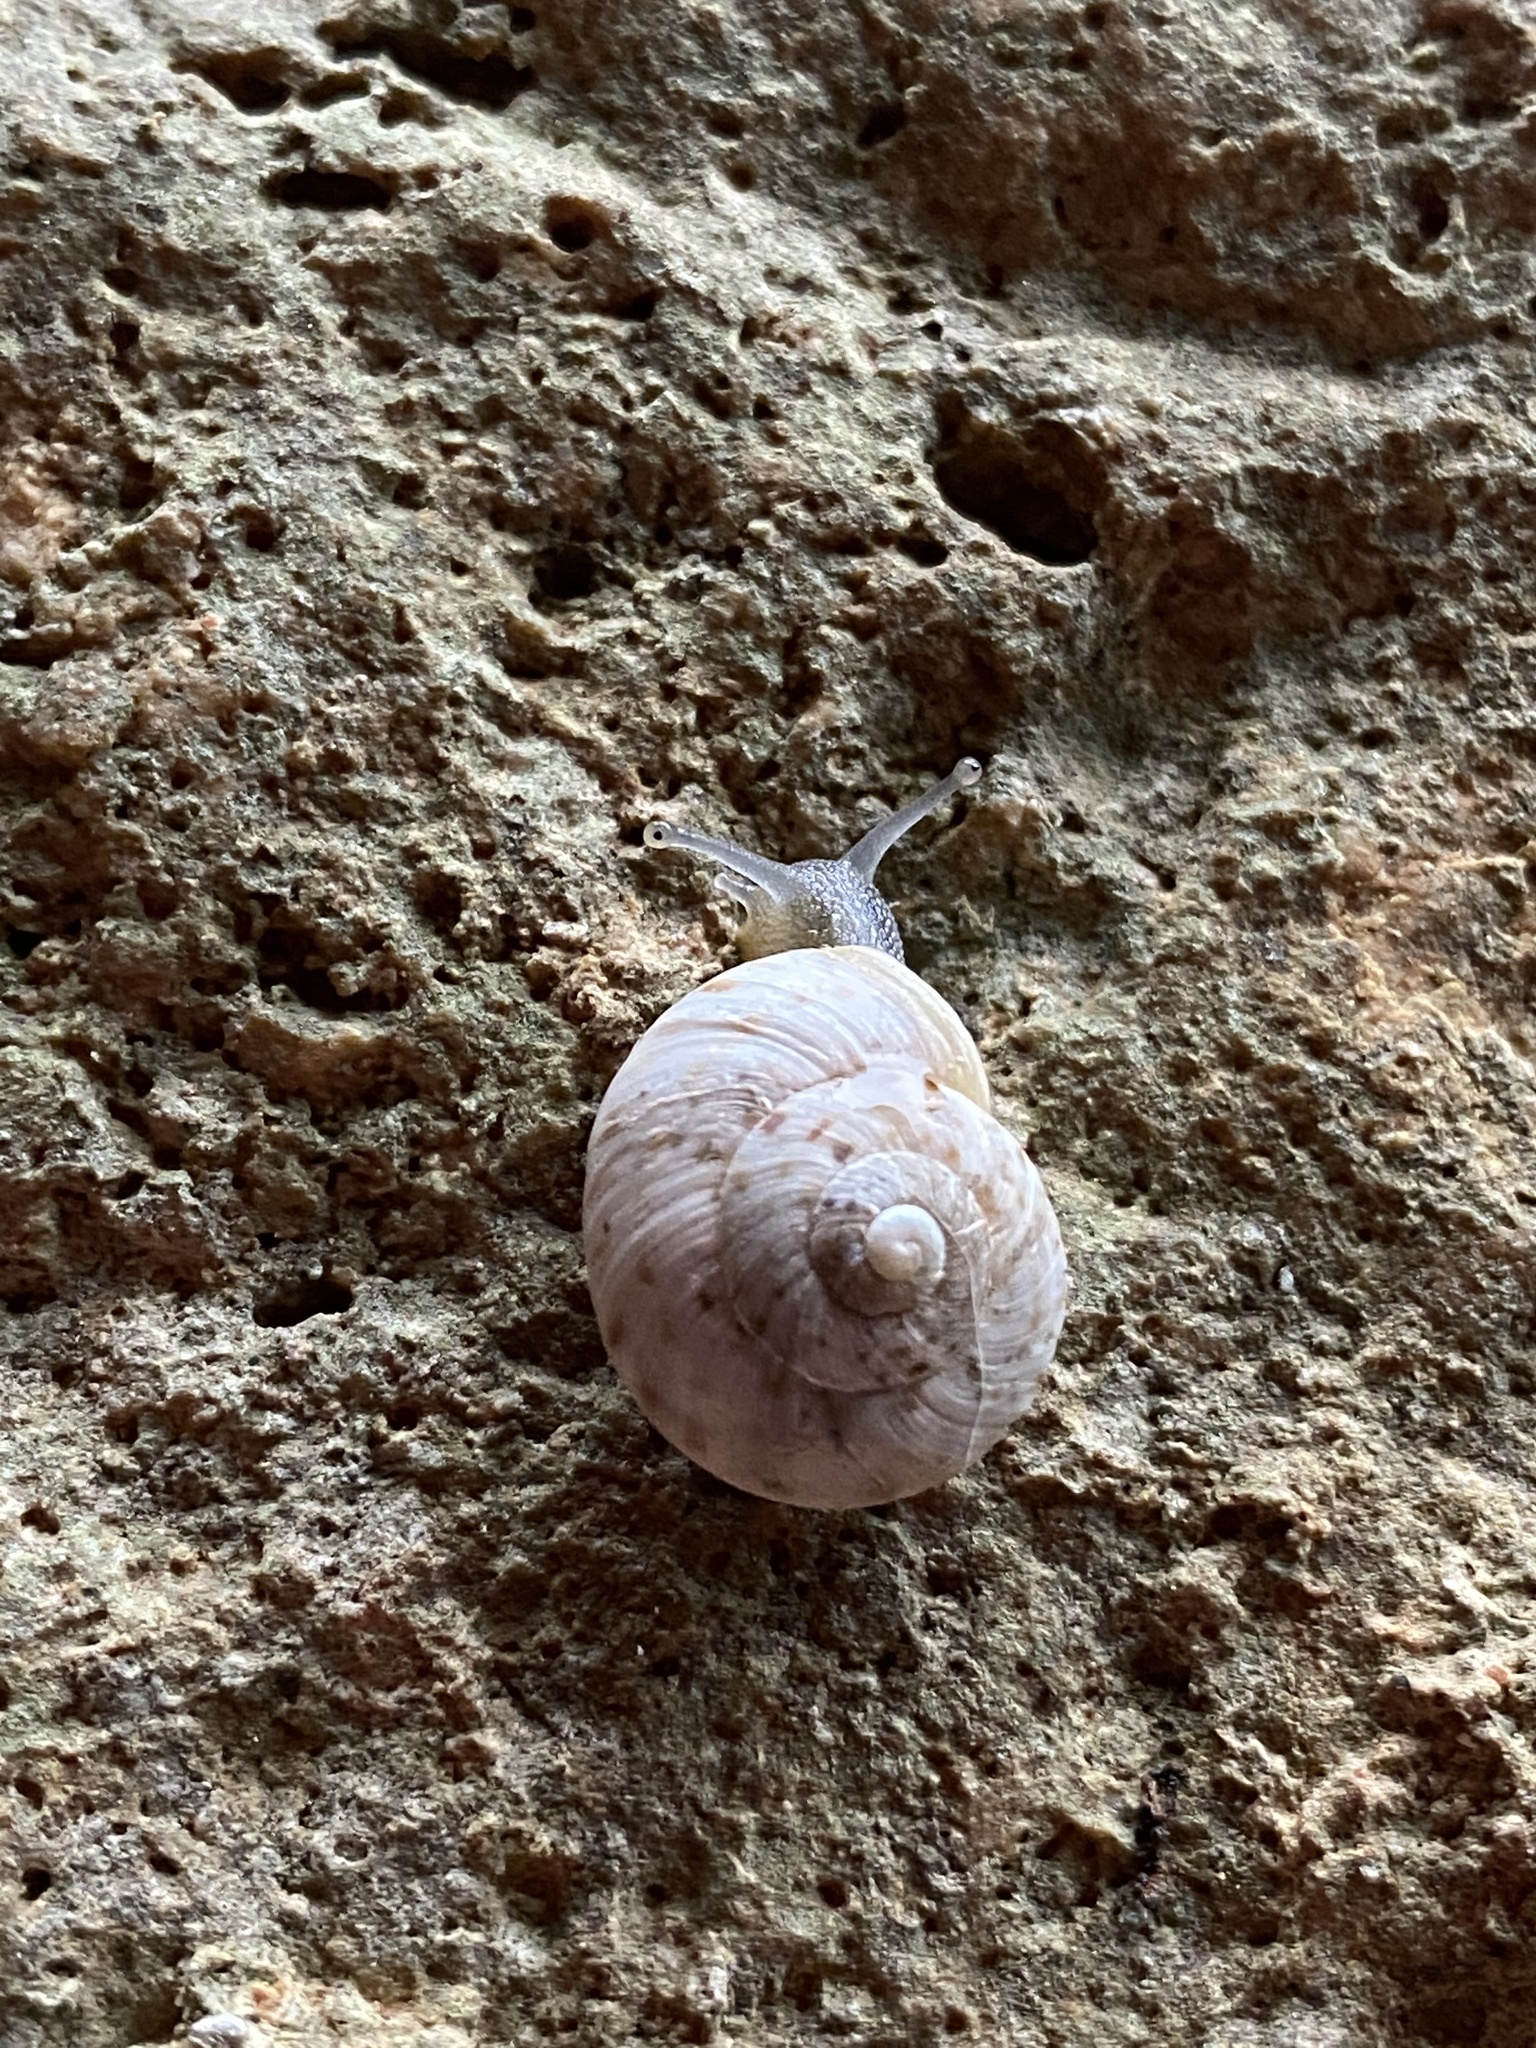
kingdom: Animalia
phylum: Mollusca
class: Gastropoda
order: Stylommatophora
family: Helicidae
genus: Marmorana
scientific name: Marmorana saxetana
